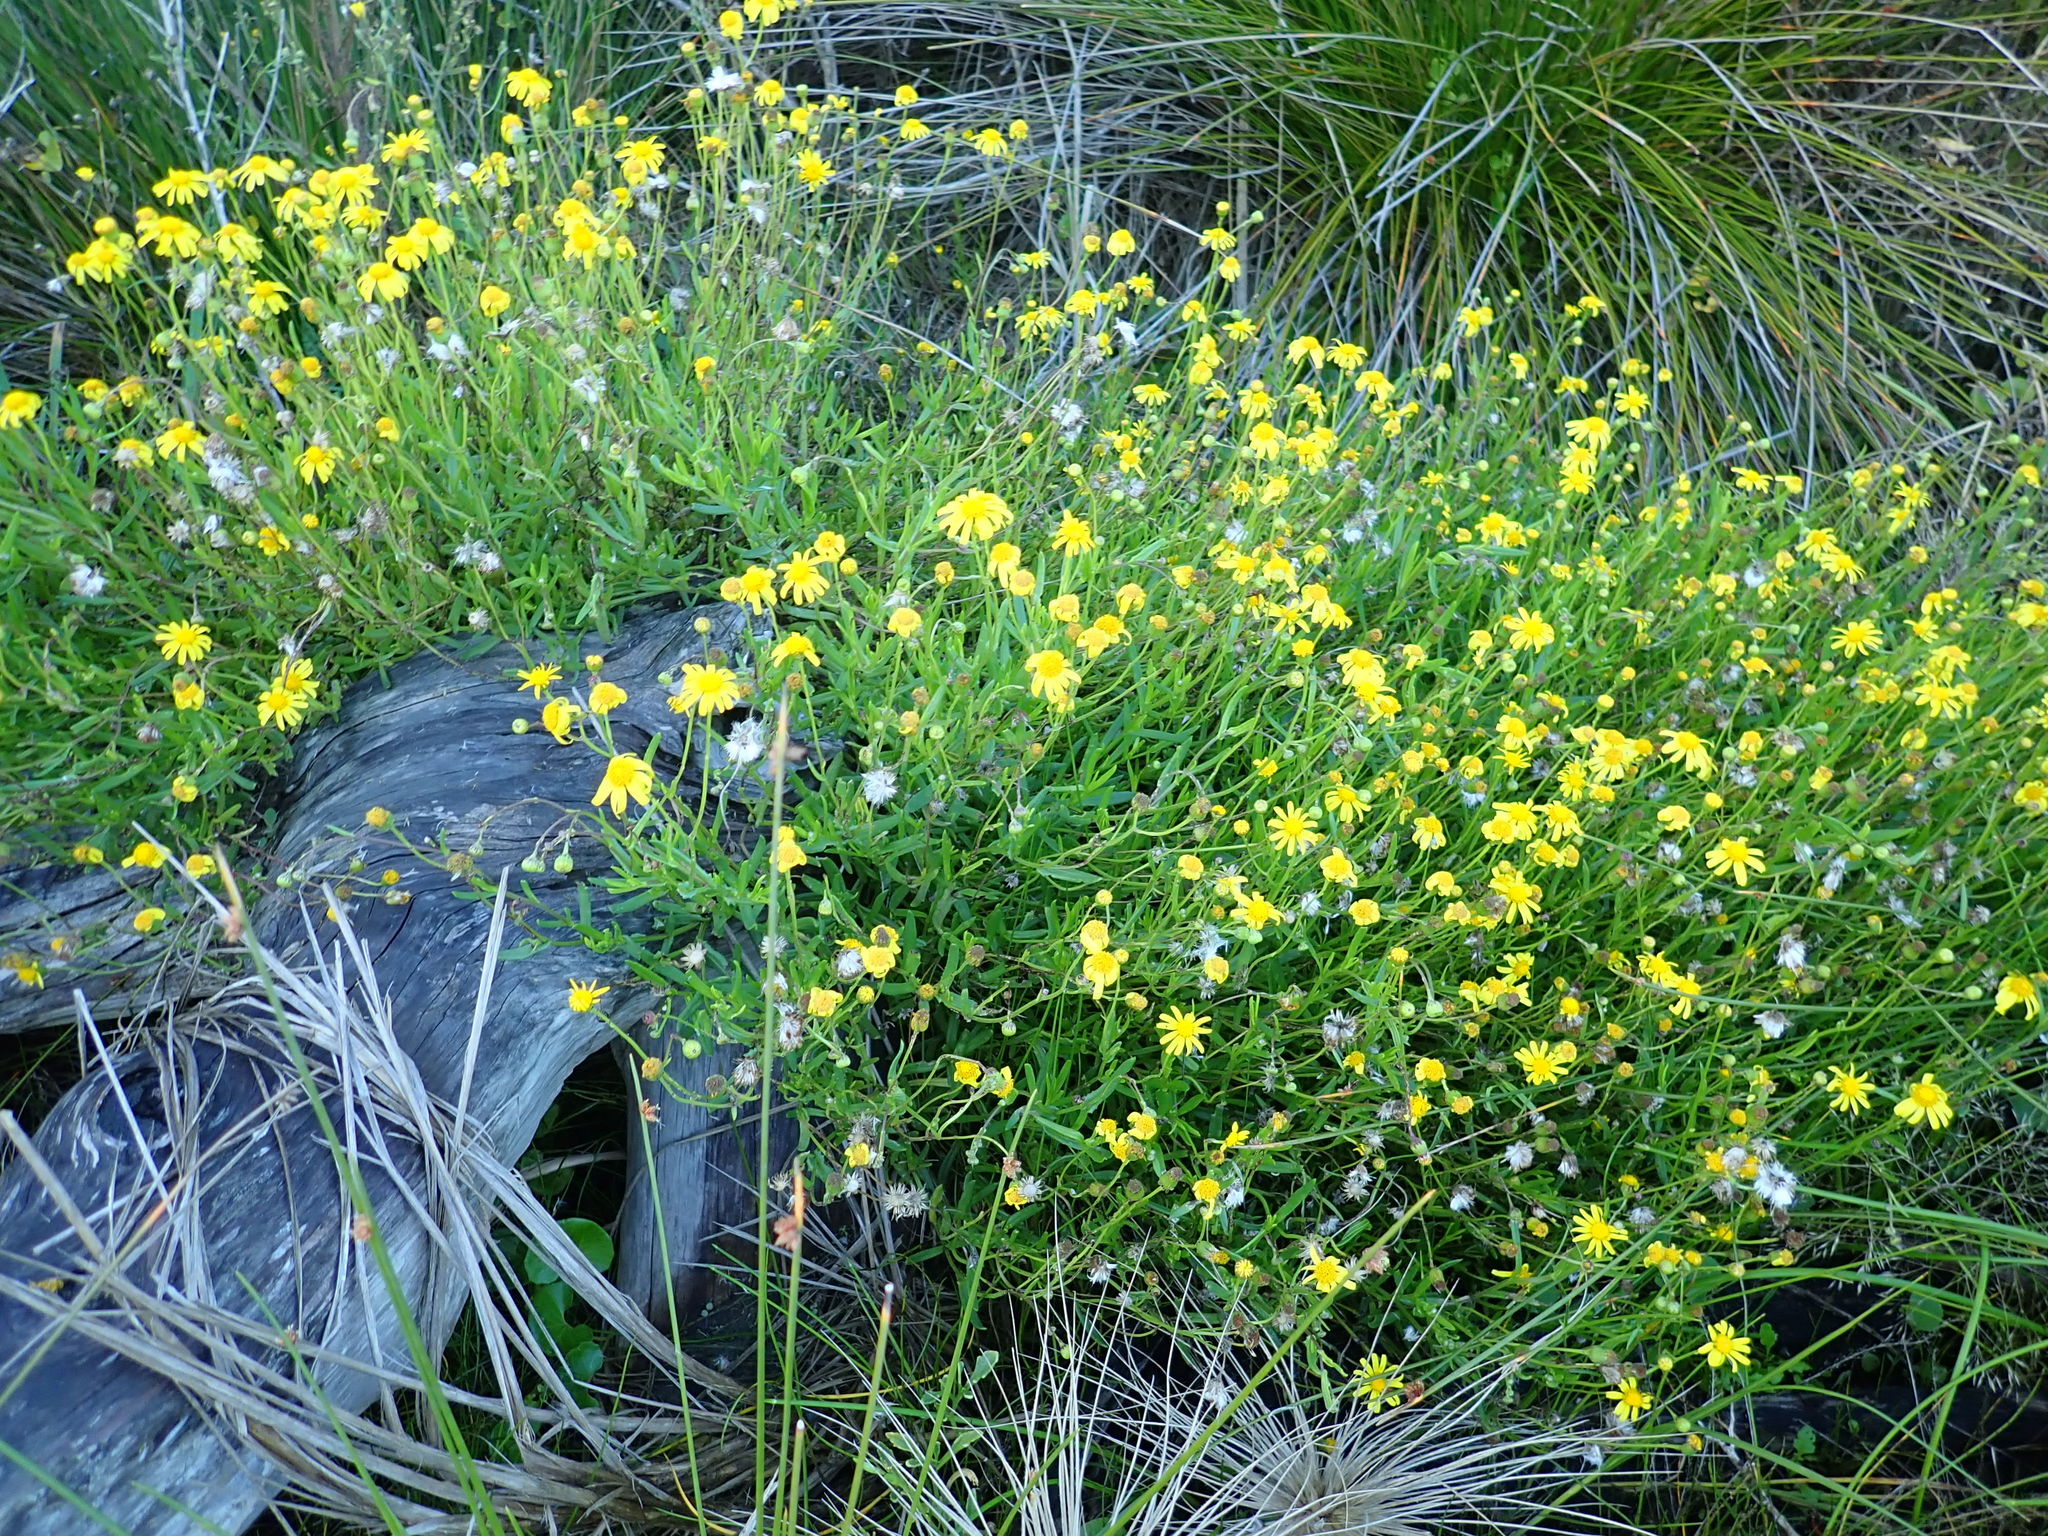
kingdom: Plantae
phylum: Tracheophyta
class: Magnoliopsida
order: Asterales
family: Asteraceae
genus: Senecio
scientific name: Senecio skirrhodon
